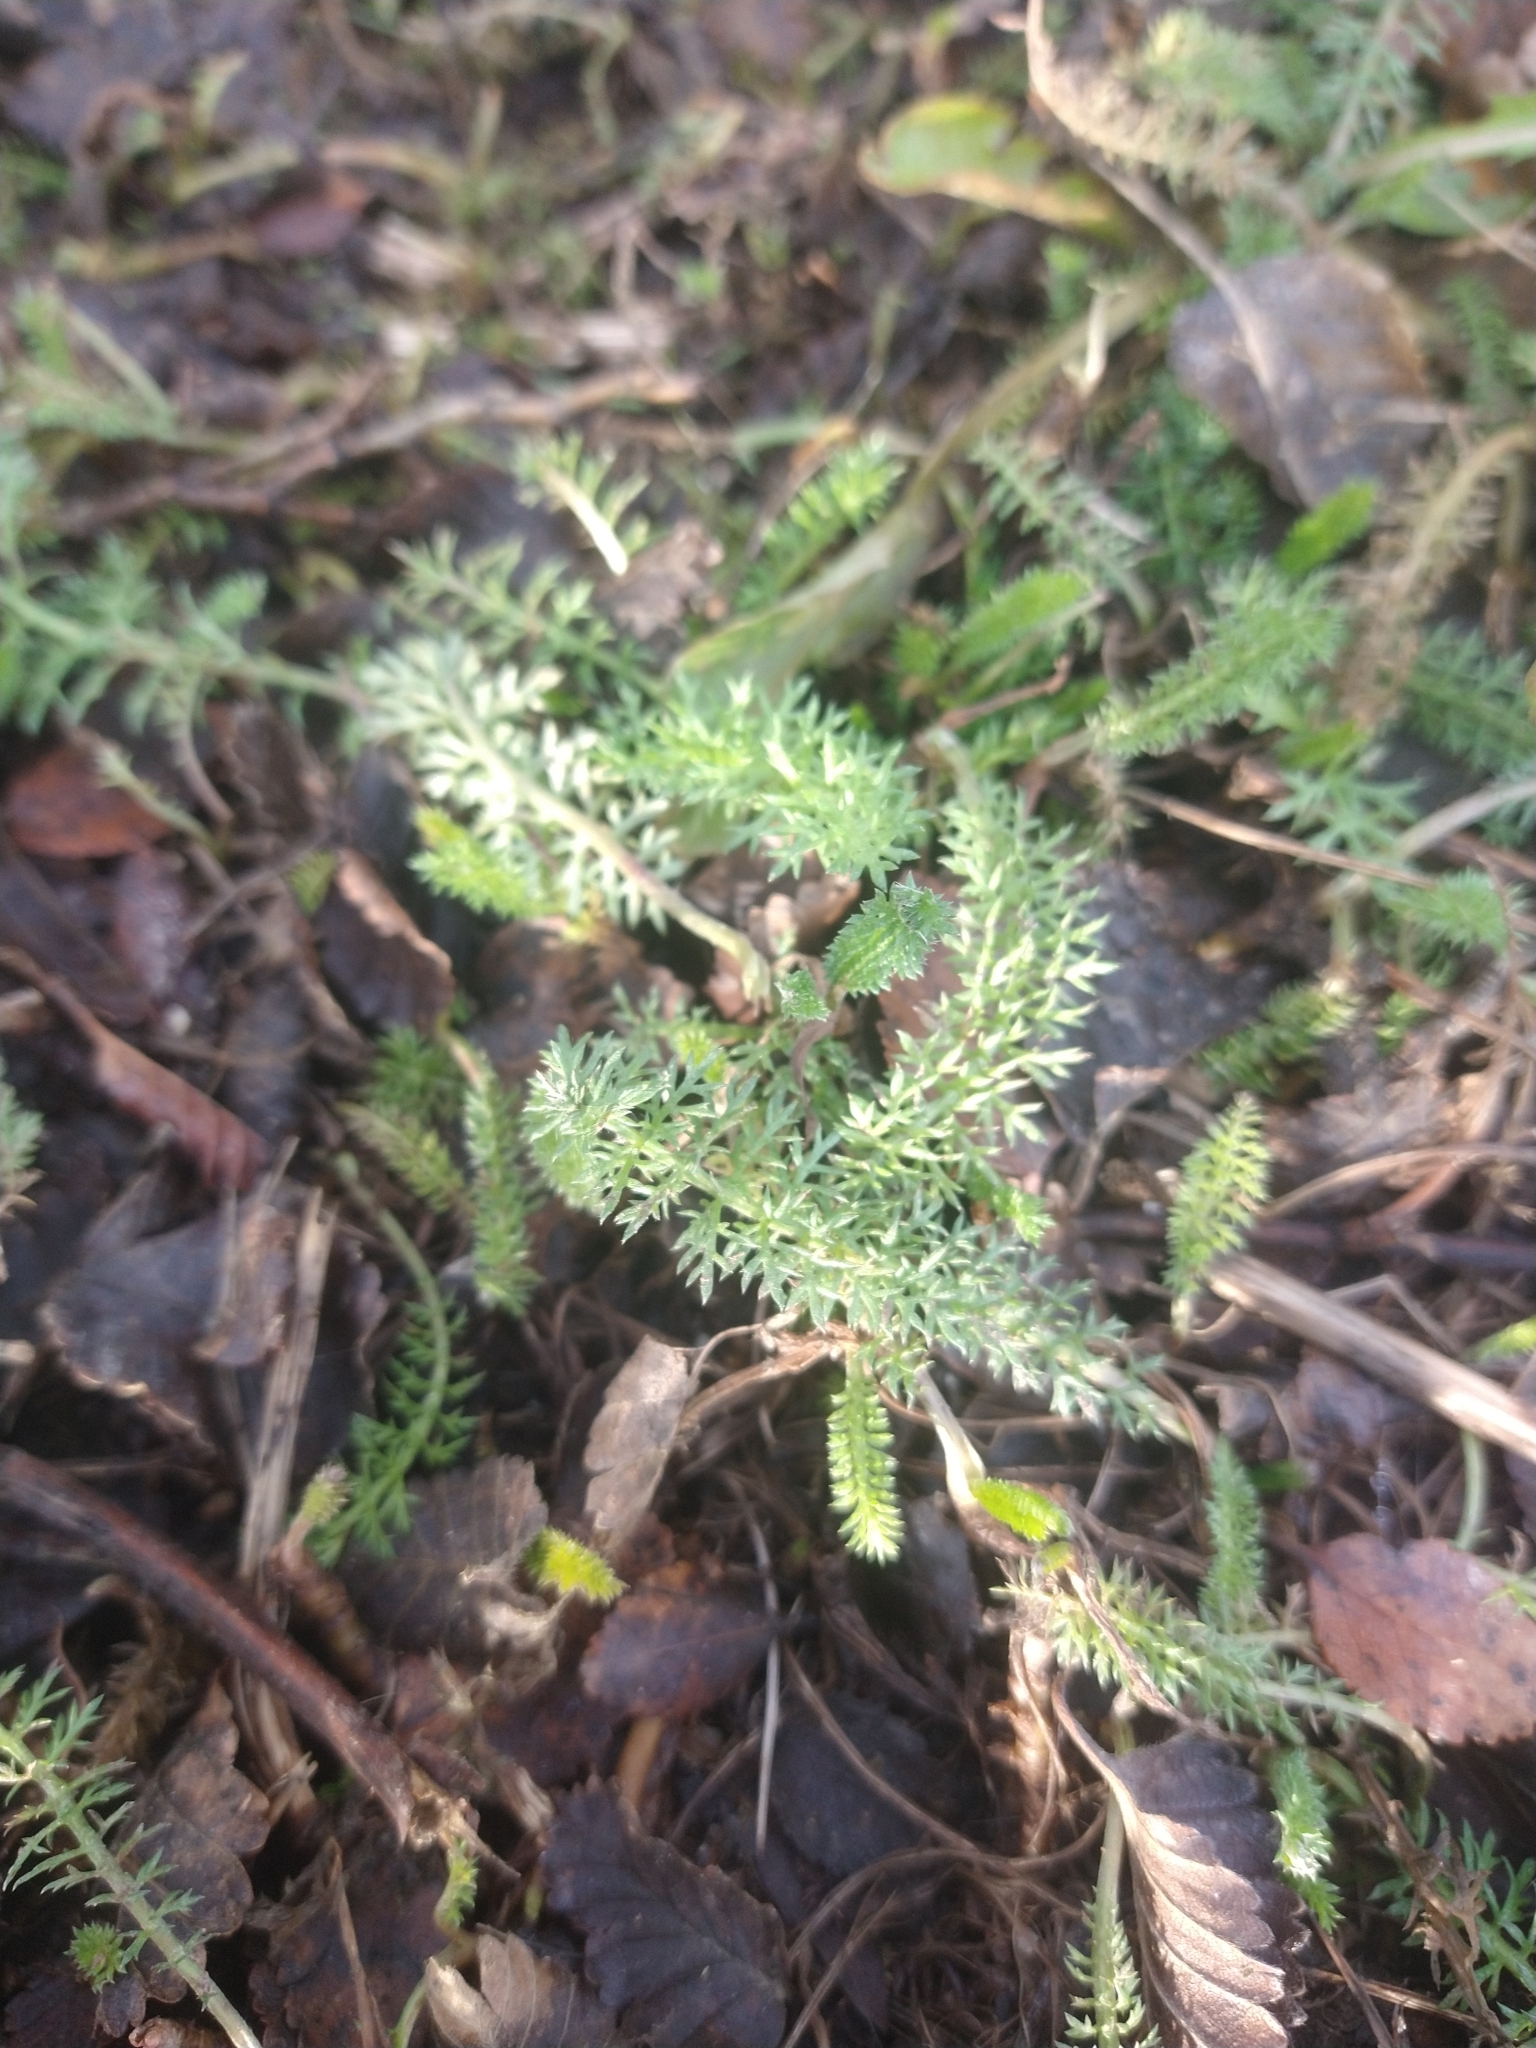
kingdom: Plantae
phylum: Tracheophyta
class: Magnoliopsida
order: Asterales
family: Asteraceae
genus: Achillea
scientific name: Achillea millefolium
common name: Yarrow
